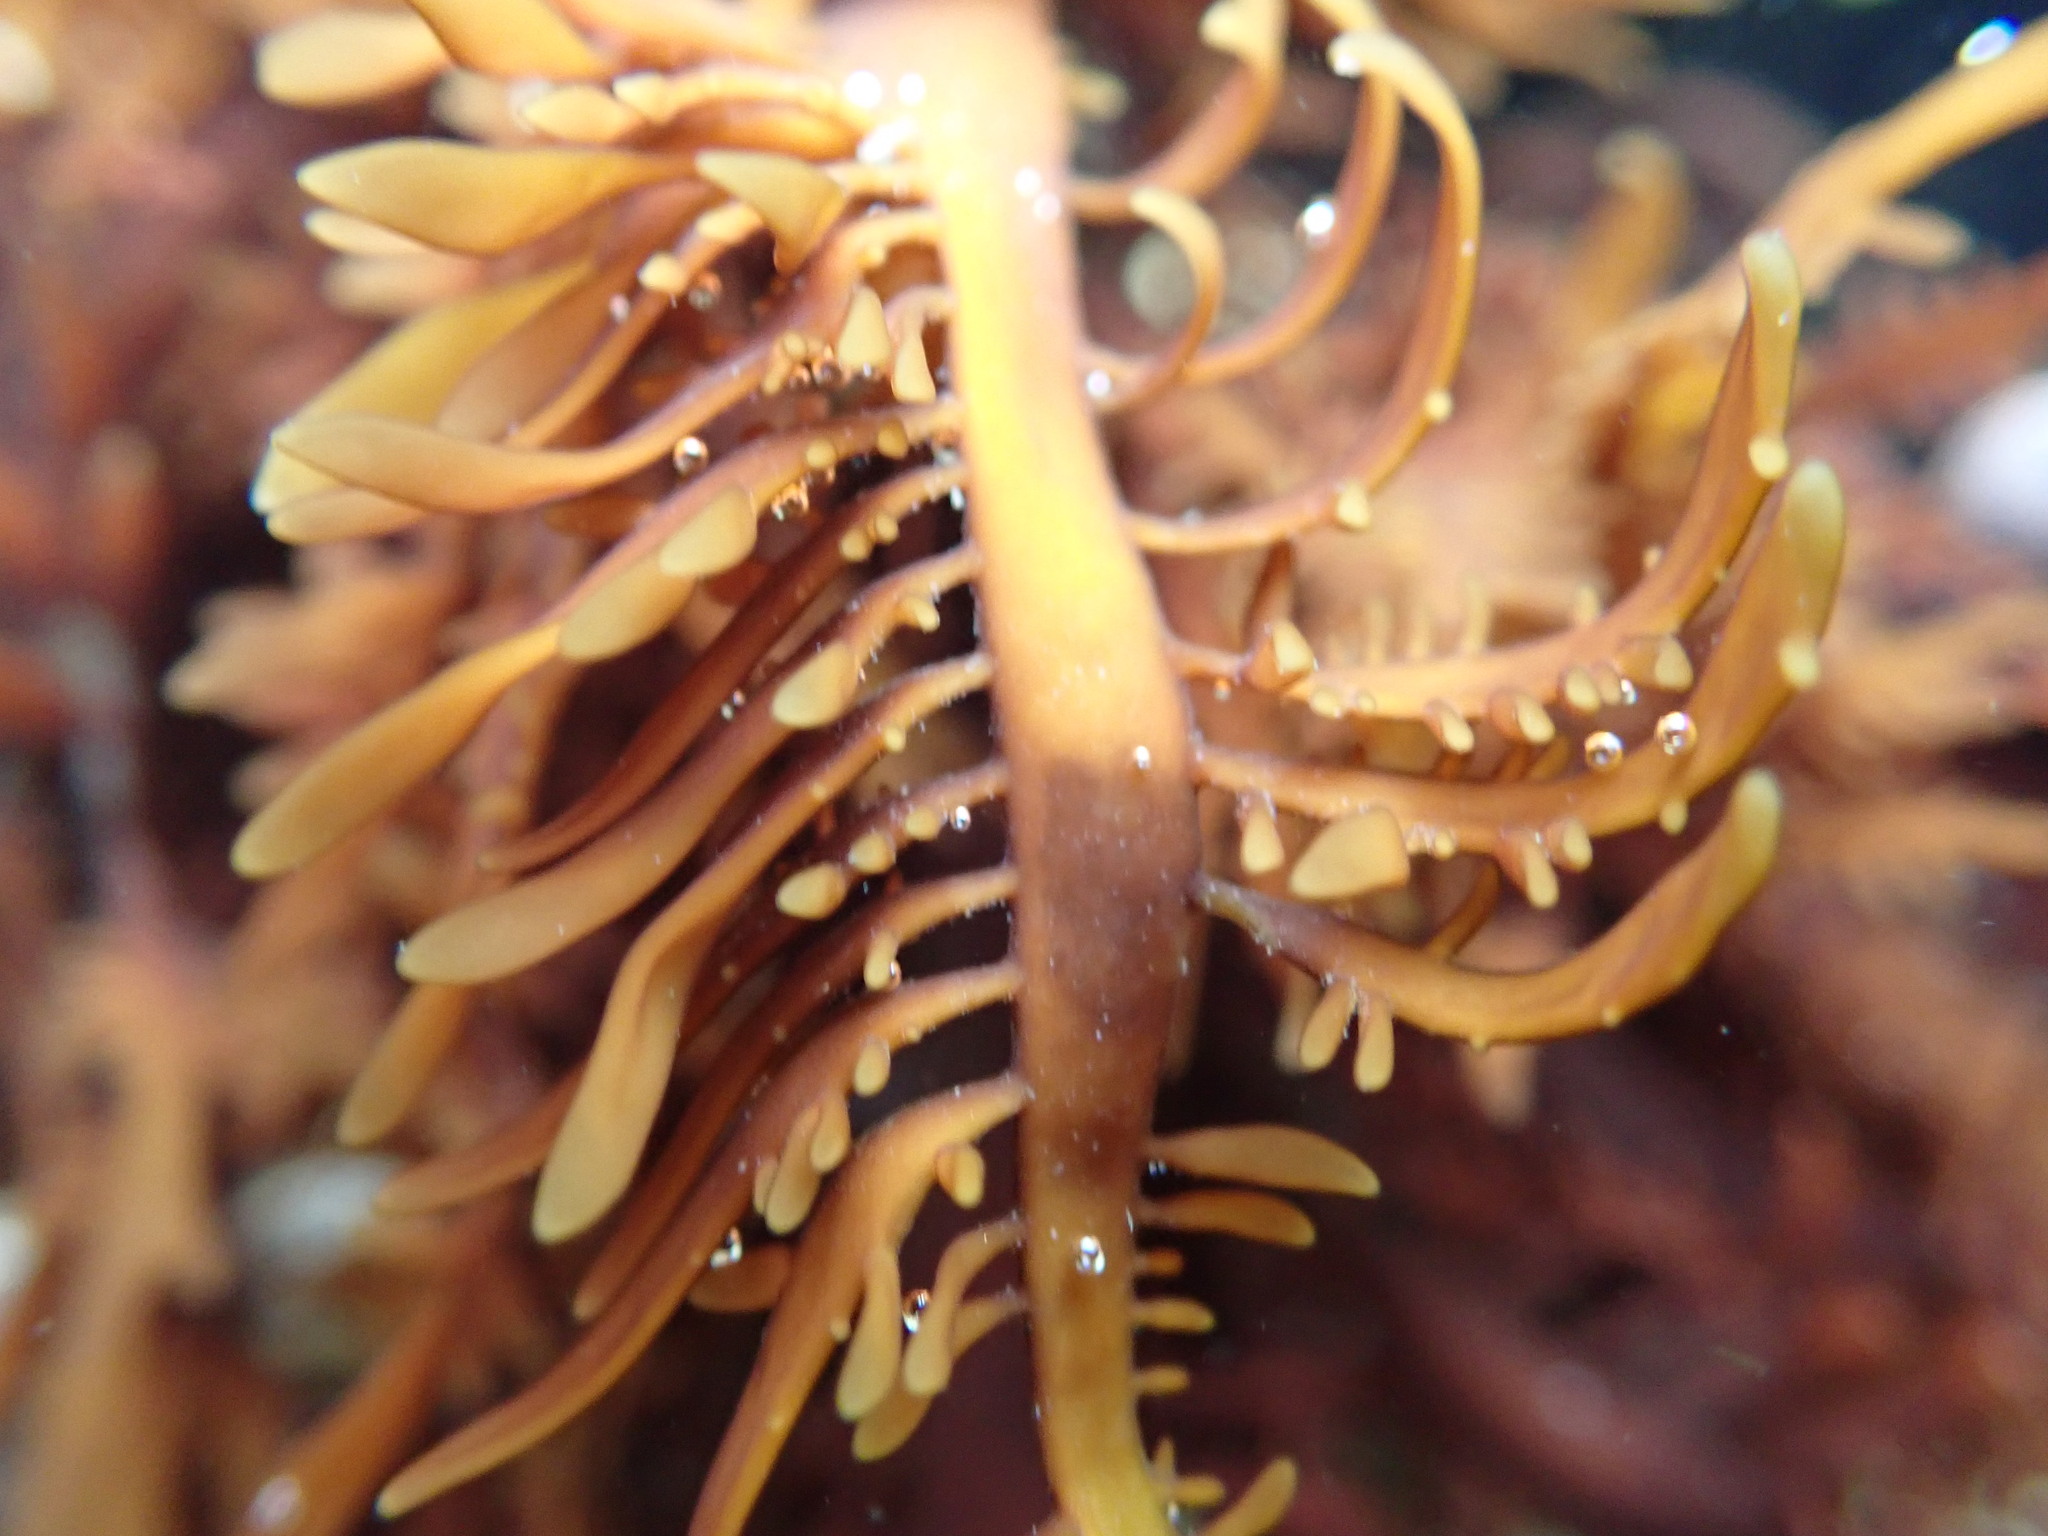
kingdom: Plantae
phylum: Rhodophyta
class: Florideophyceae
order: Halymeniales
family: Halymeniaceae
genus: Grateloupia
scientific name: Grateloupia Prionitis lanceolata
